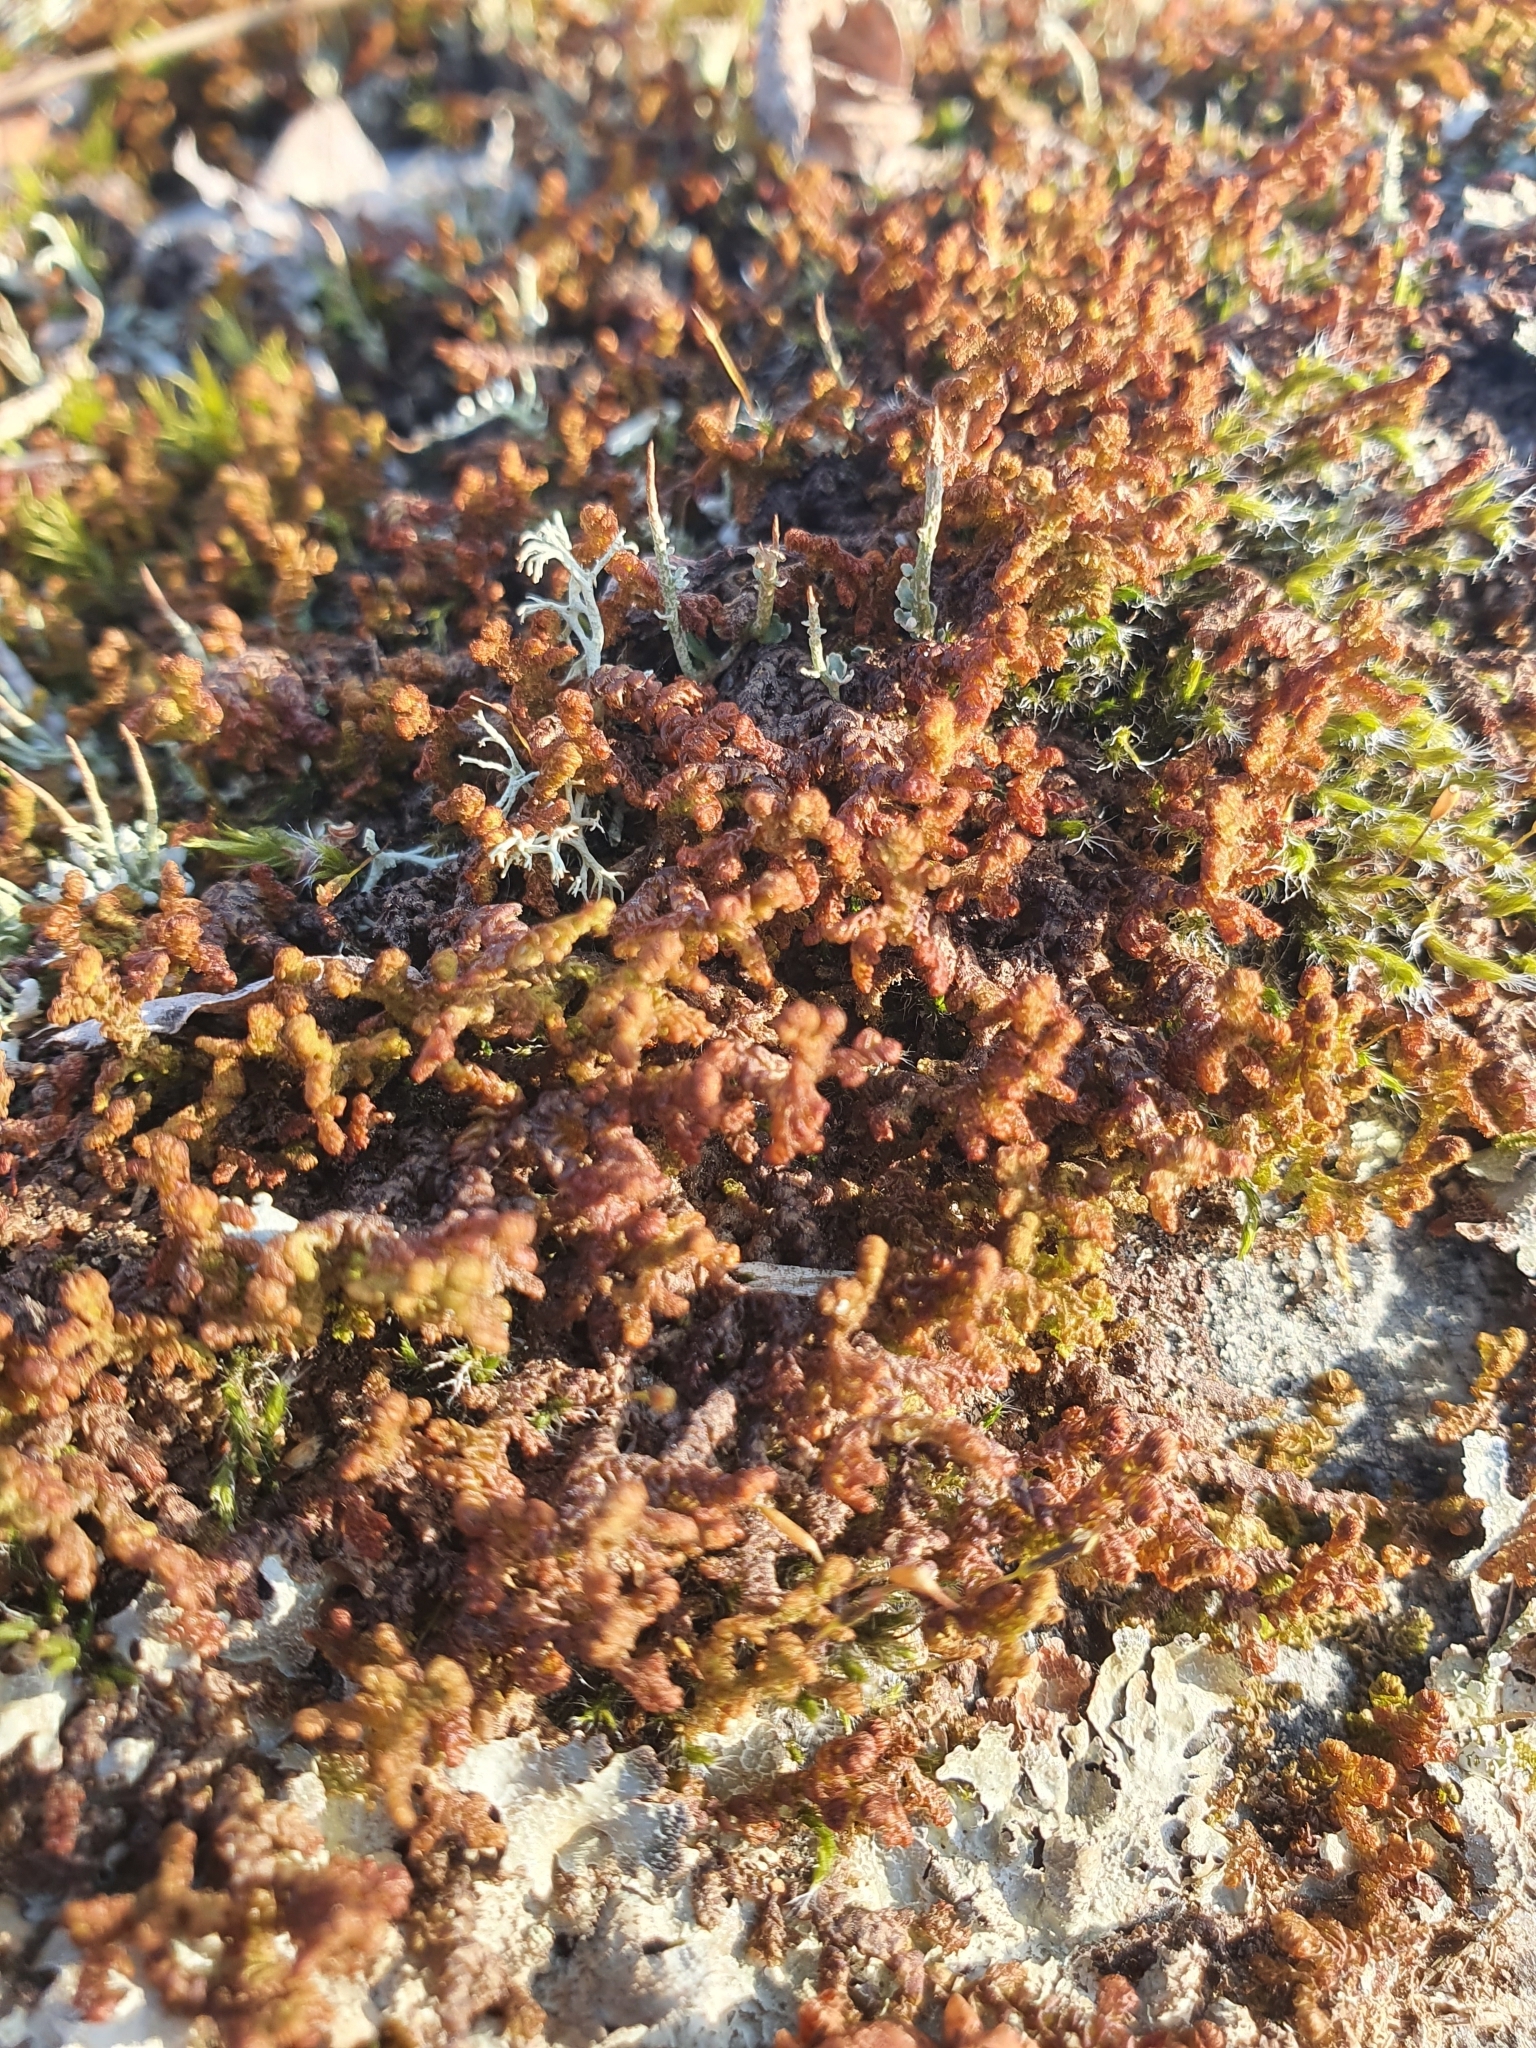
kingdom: Plantae
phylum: Marchantiophyta
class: Jungermanniopsida
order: Ptilidiales
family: Ptilidiaceae
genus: Ptilidium
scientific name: Ptilidium ciliare
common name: Ciliate fringewort
